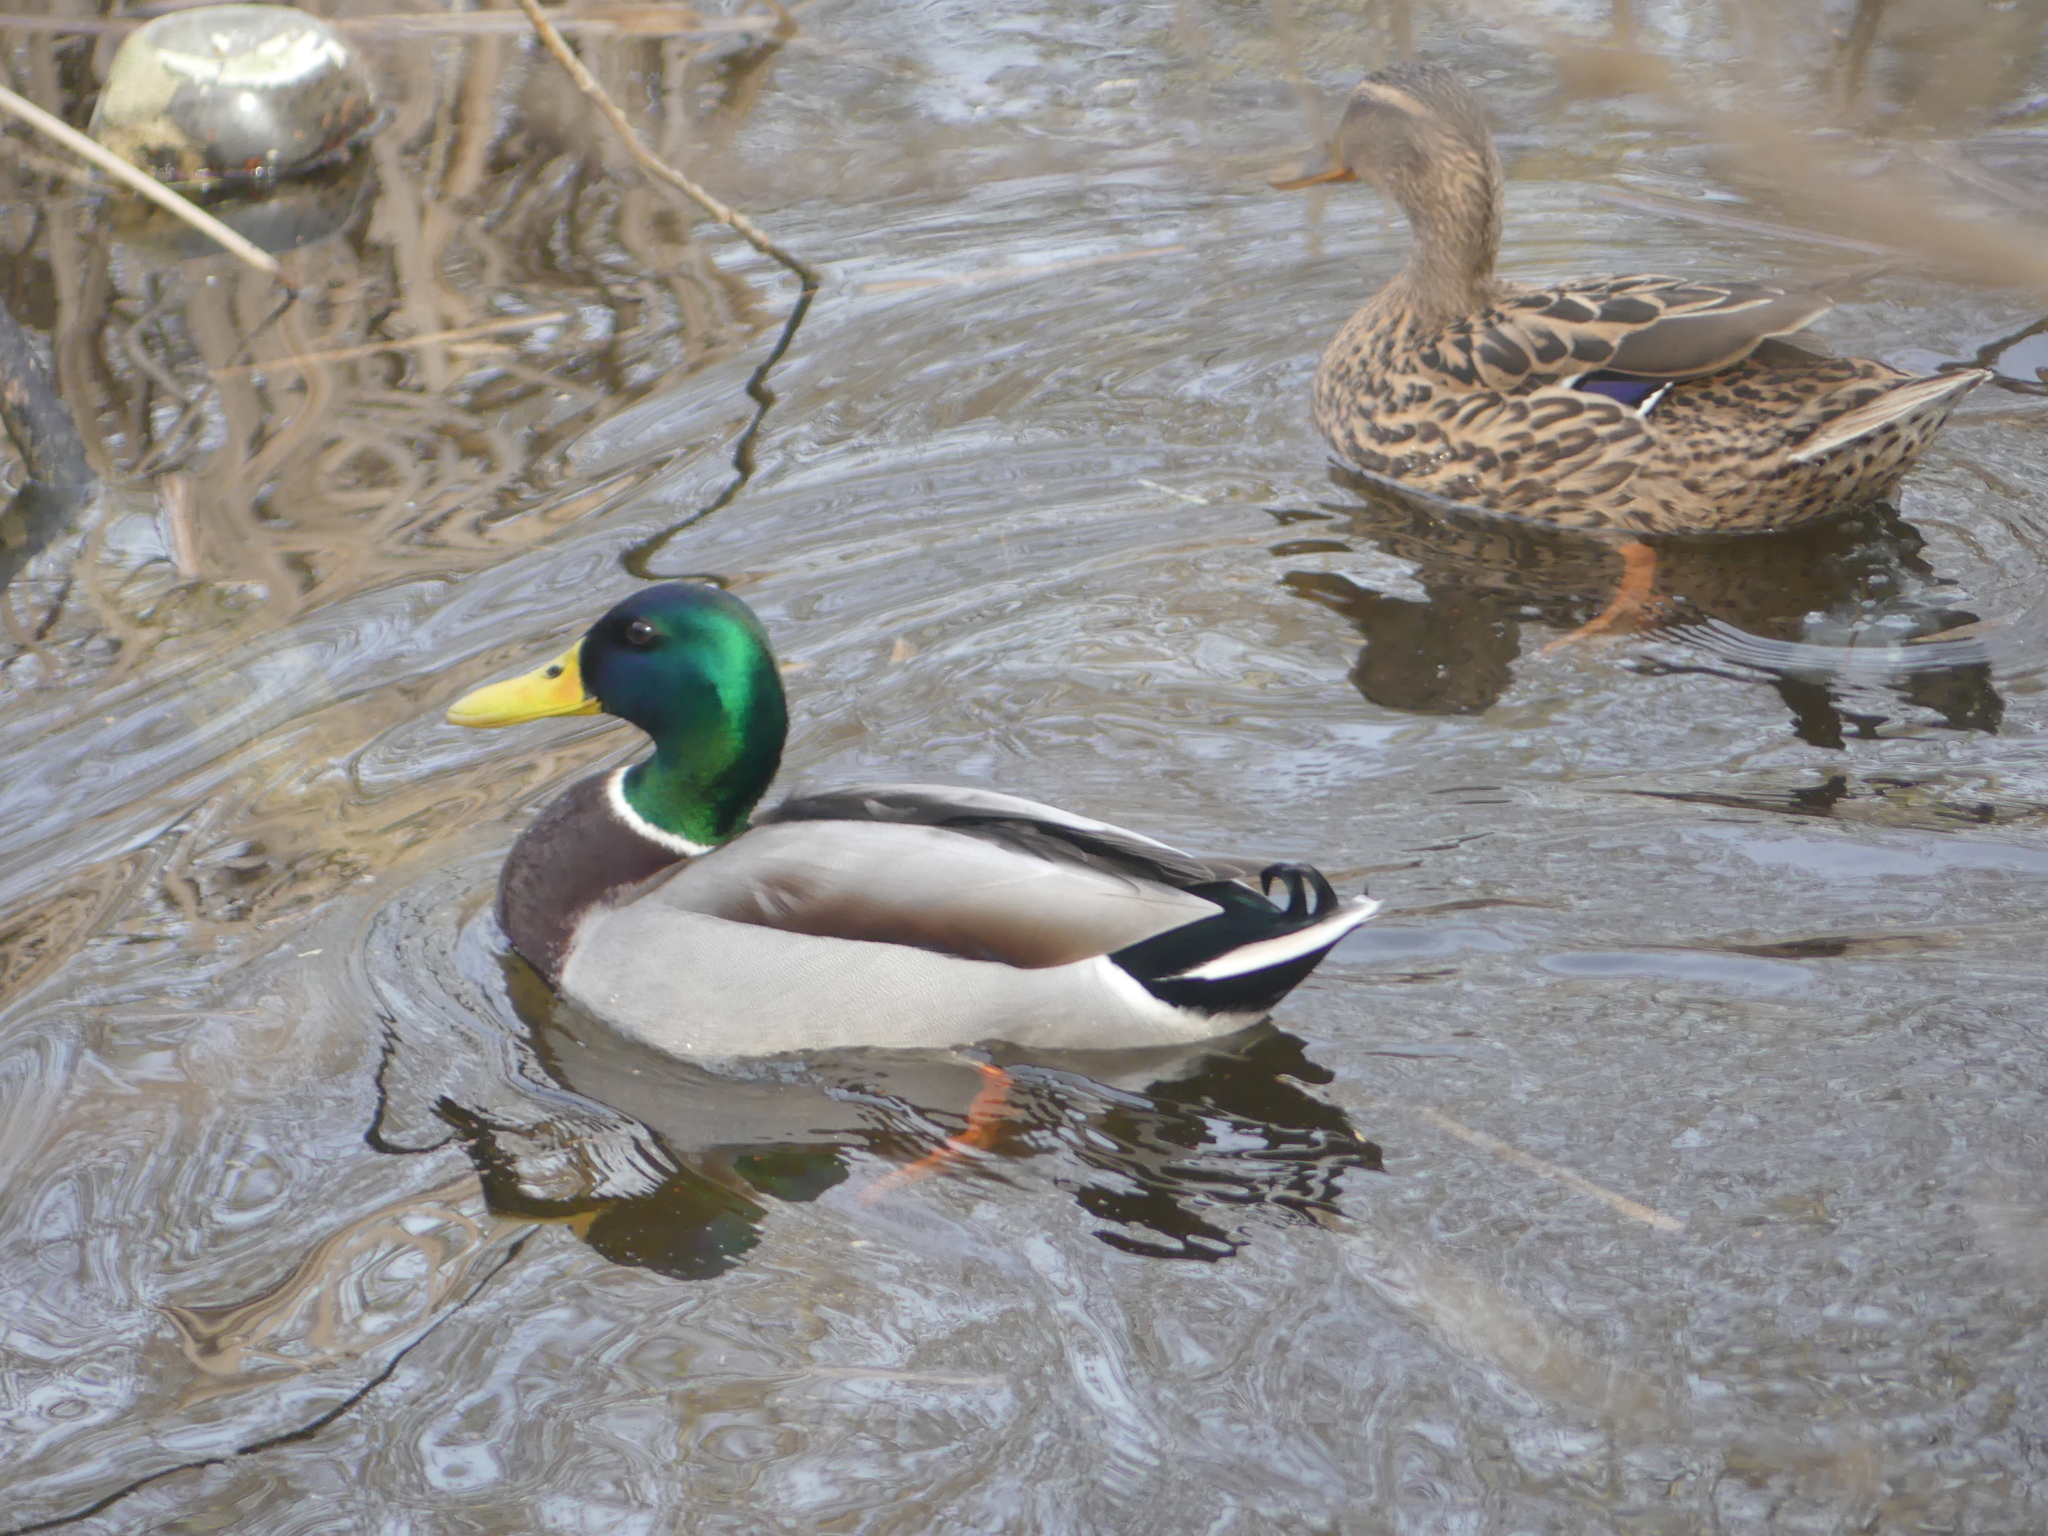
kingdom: Animalia
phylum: Chordata
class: Aves
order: Anseriformes
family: Anatidae
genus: Anas
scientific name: Anas platyrhynchos
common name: Mallard
